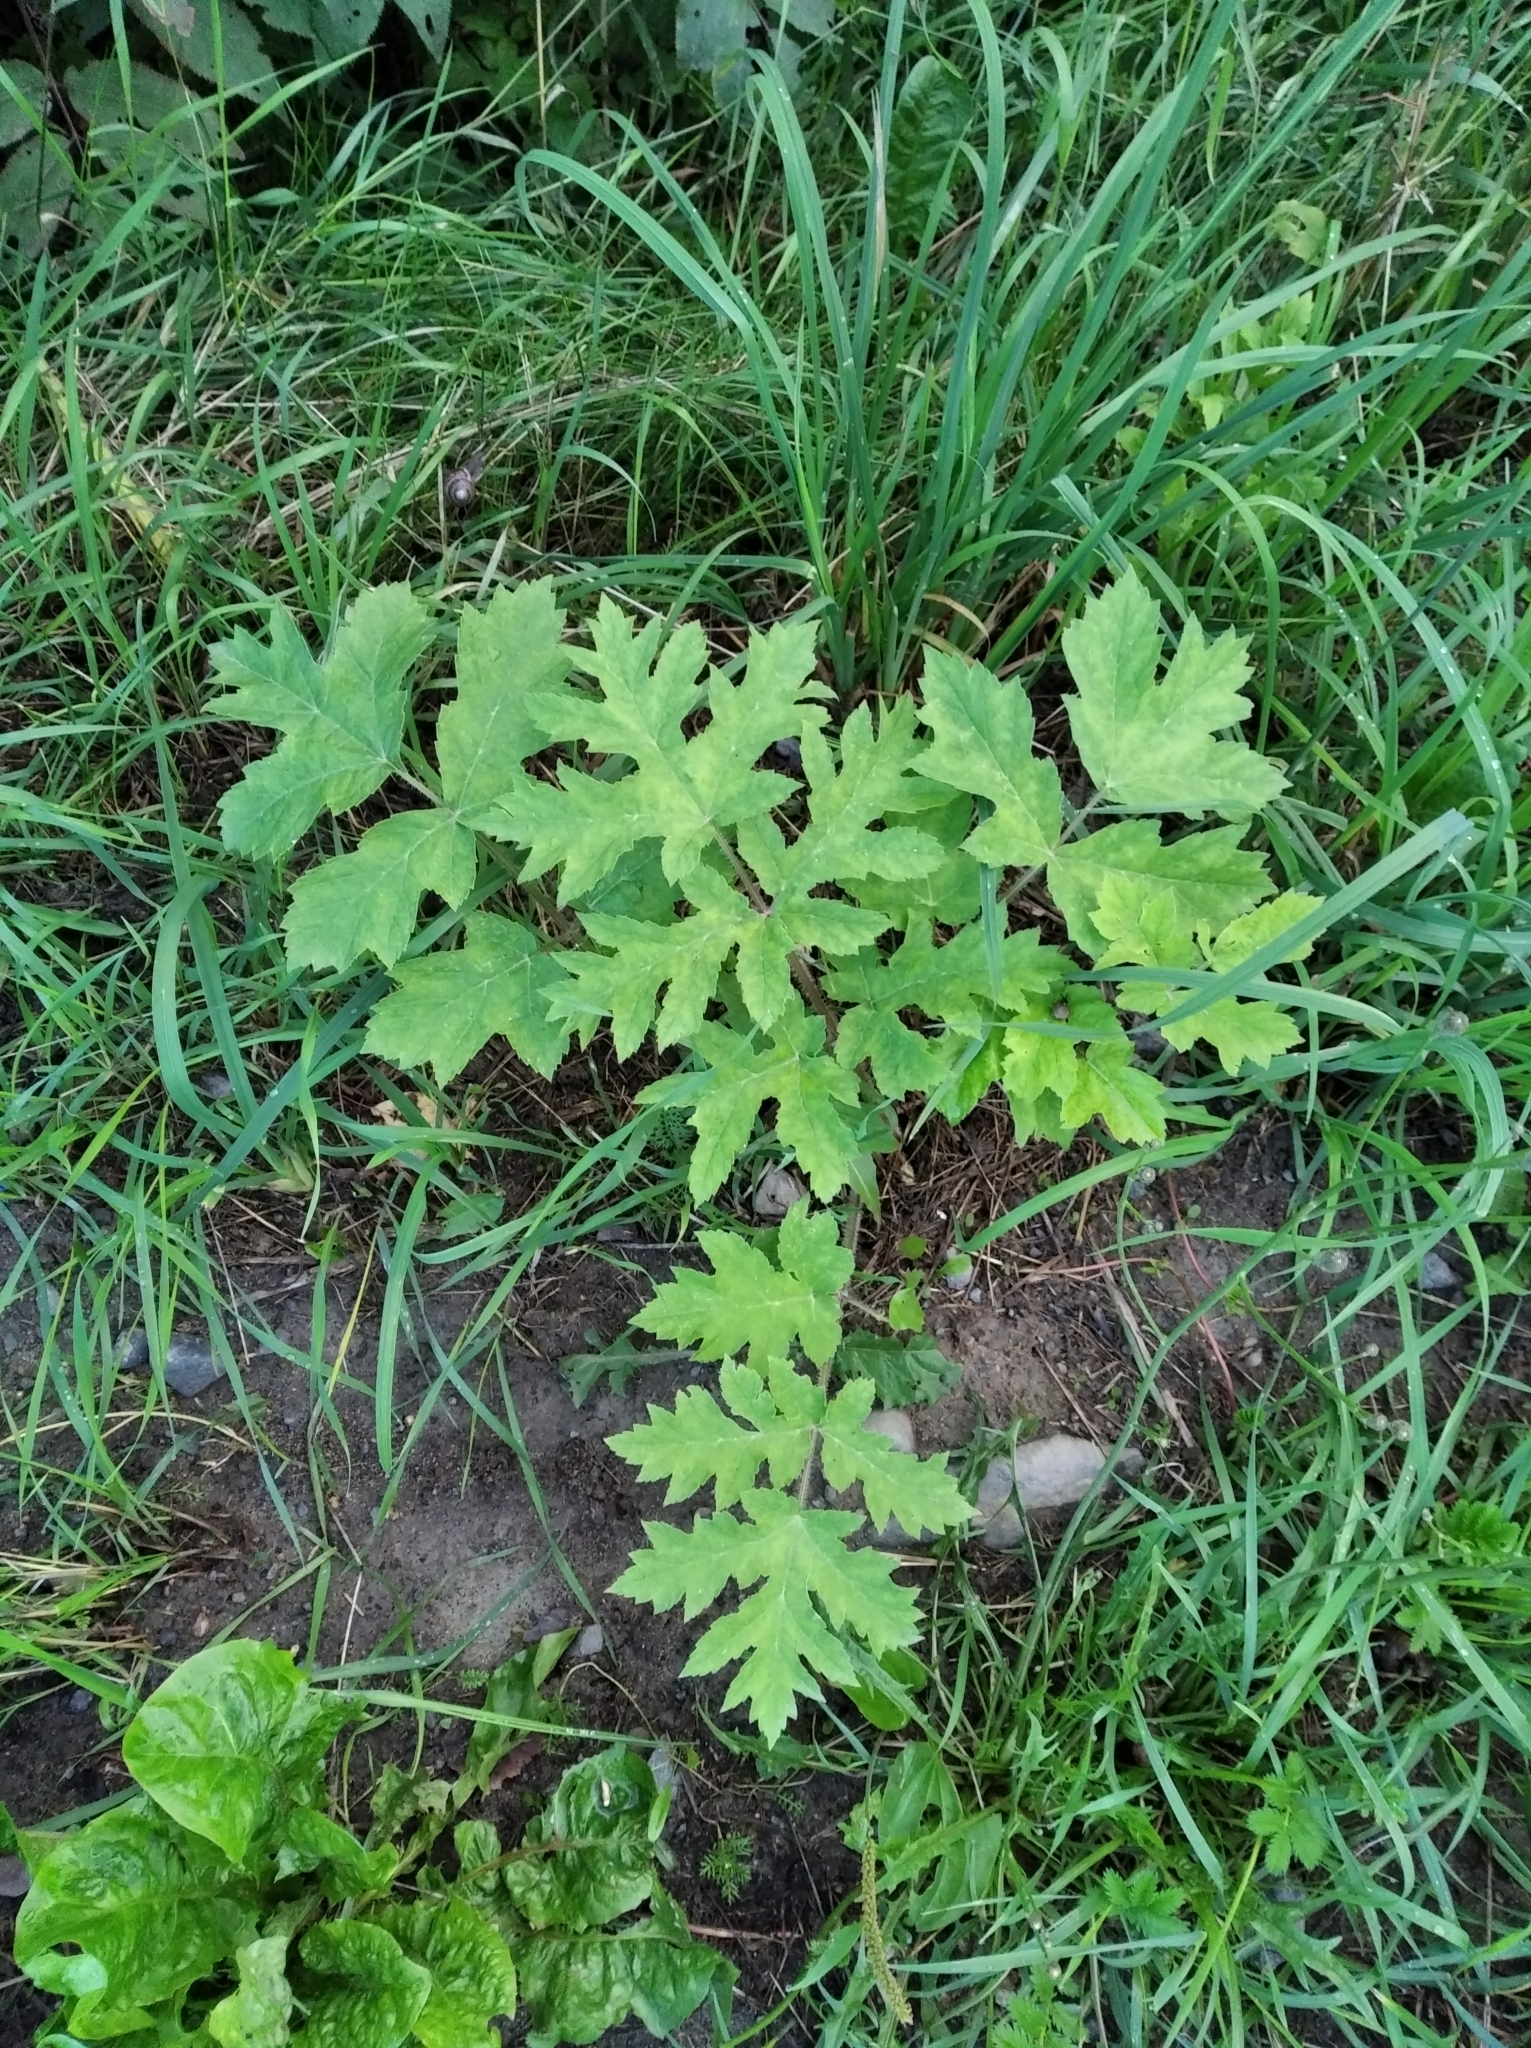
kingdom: Plantae
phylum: Tracheophyta
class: Magnoliopsida
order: Apiales
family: Apiaceae
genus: Heracleum
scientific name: Heracleum sphondylium
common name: Hogweed
